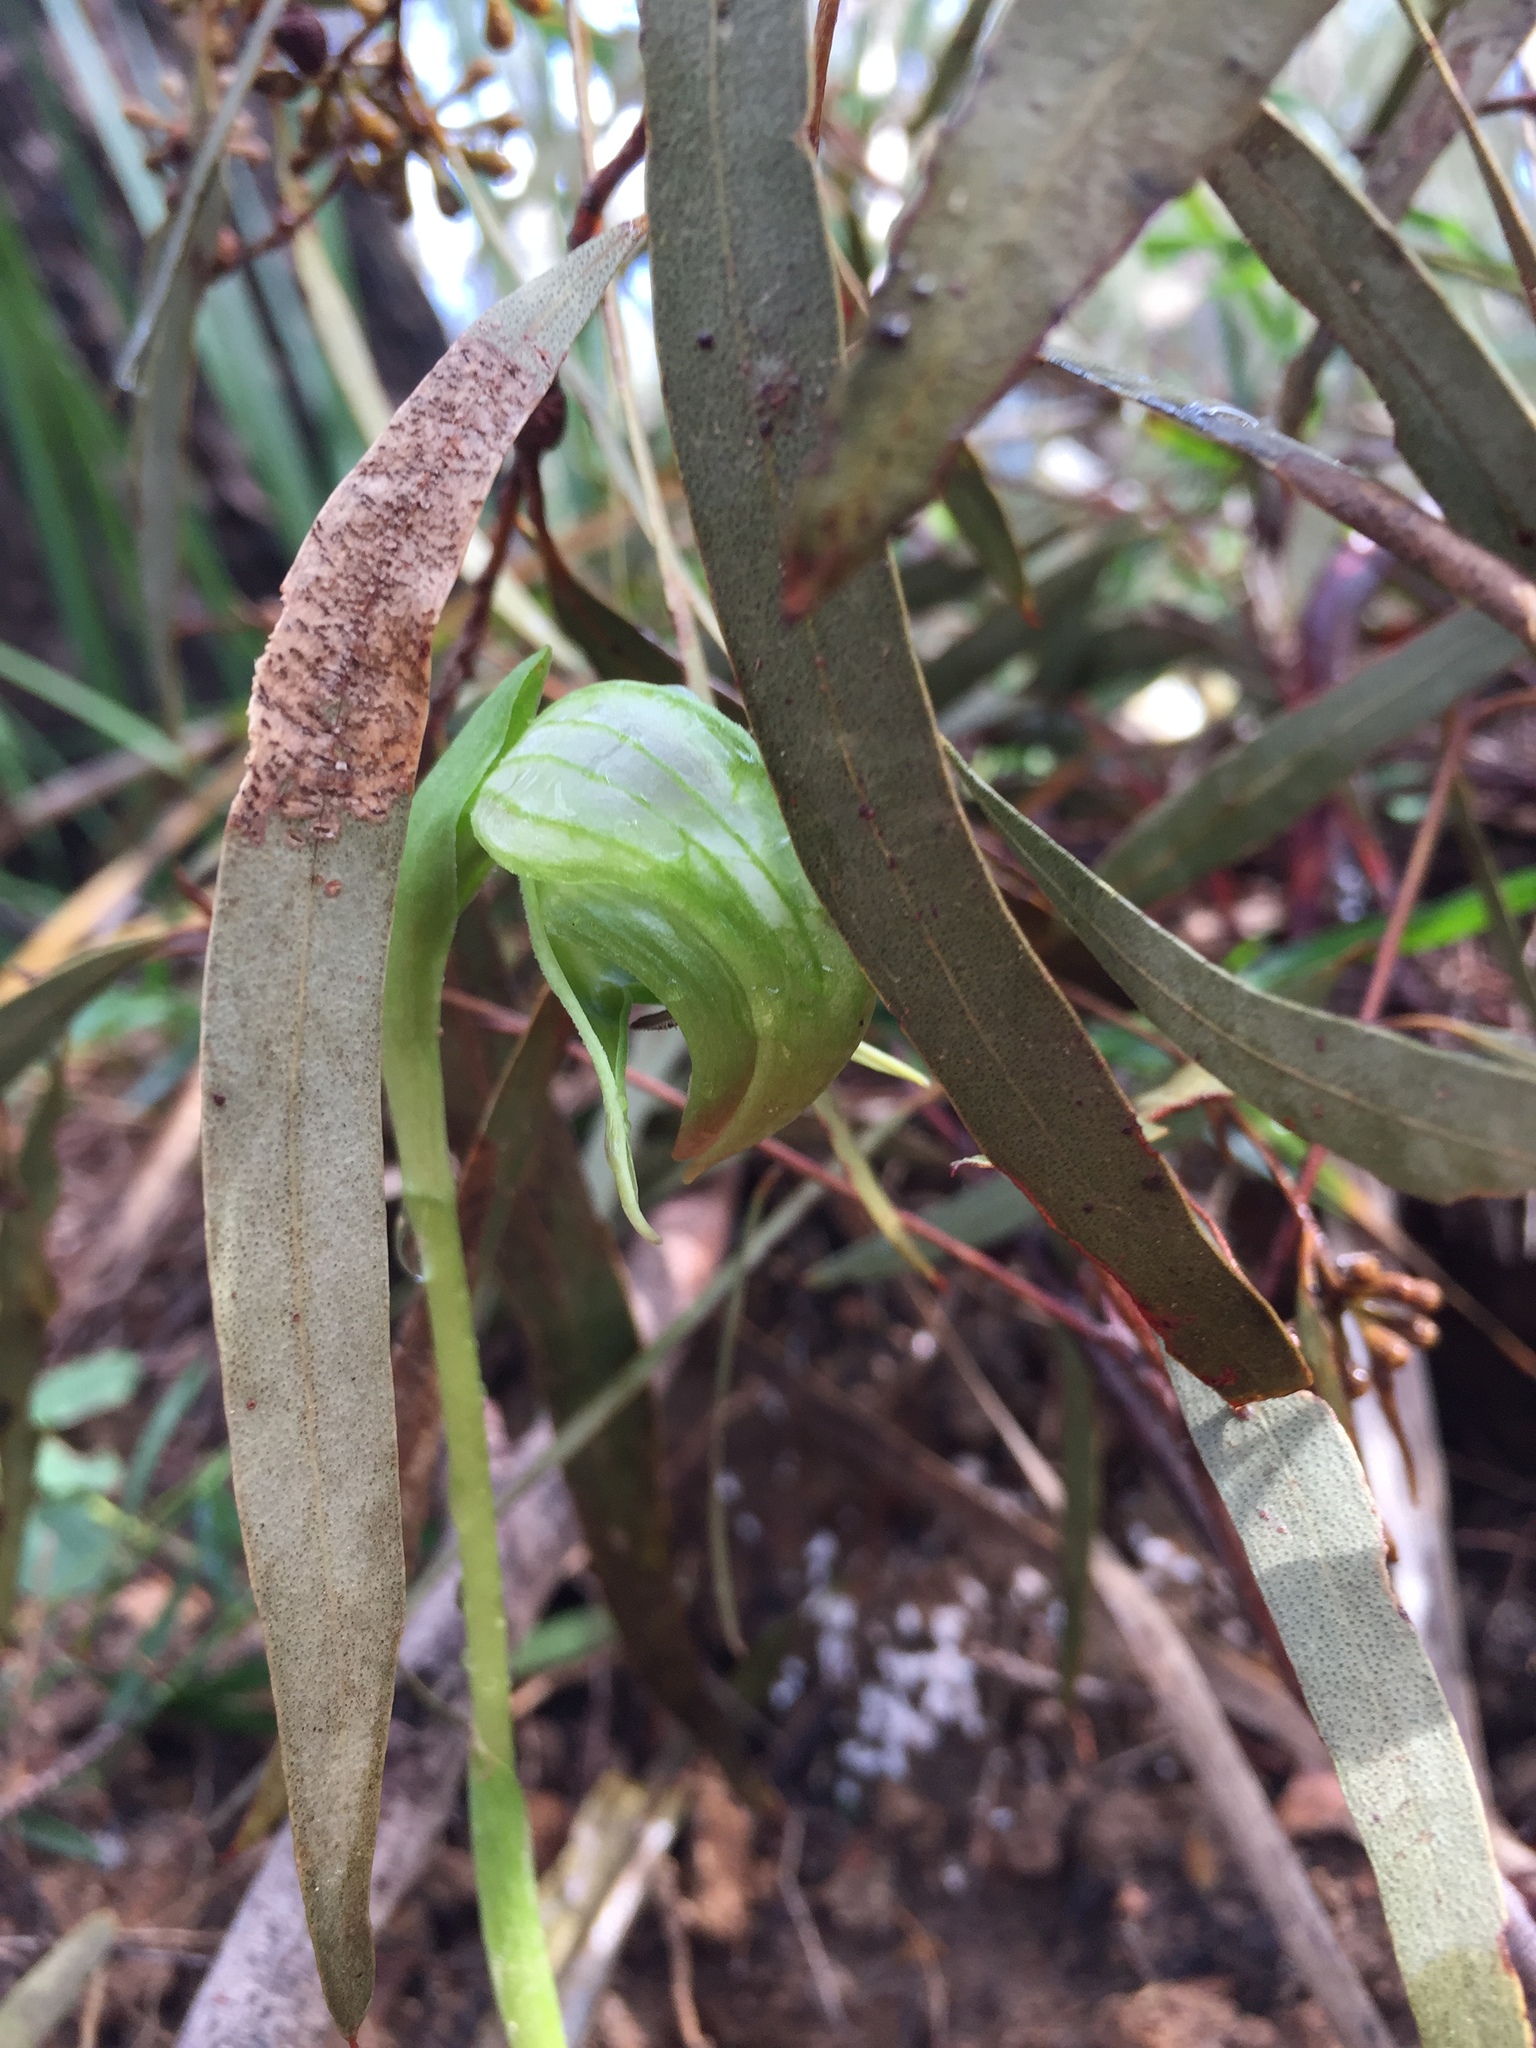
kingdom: Plantae
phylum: Tracheophyta
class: Liliopsida
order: Asparagales
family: Orchidaceae
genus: Pterostylis
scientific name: Pterostylis nutans
